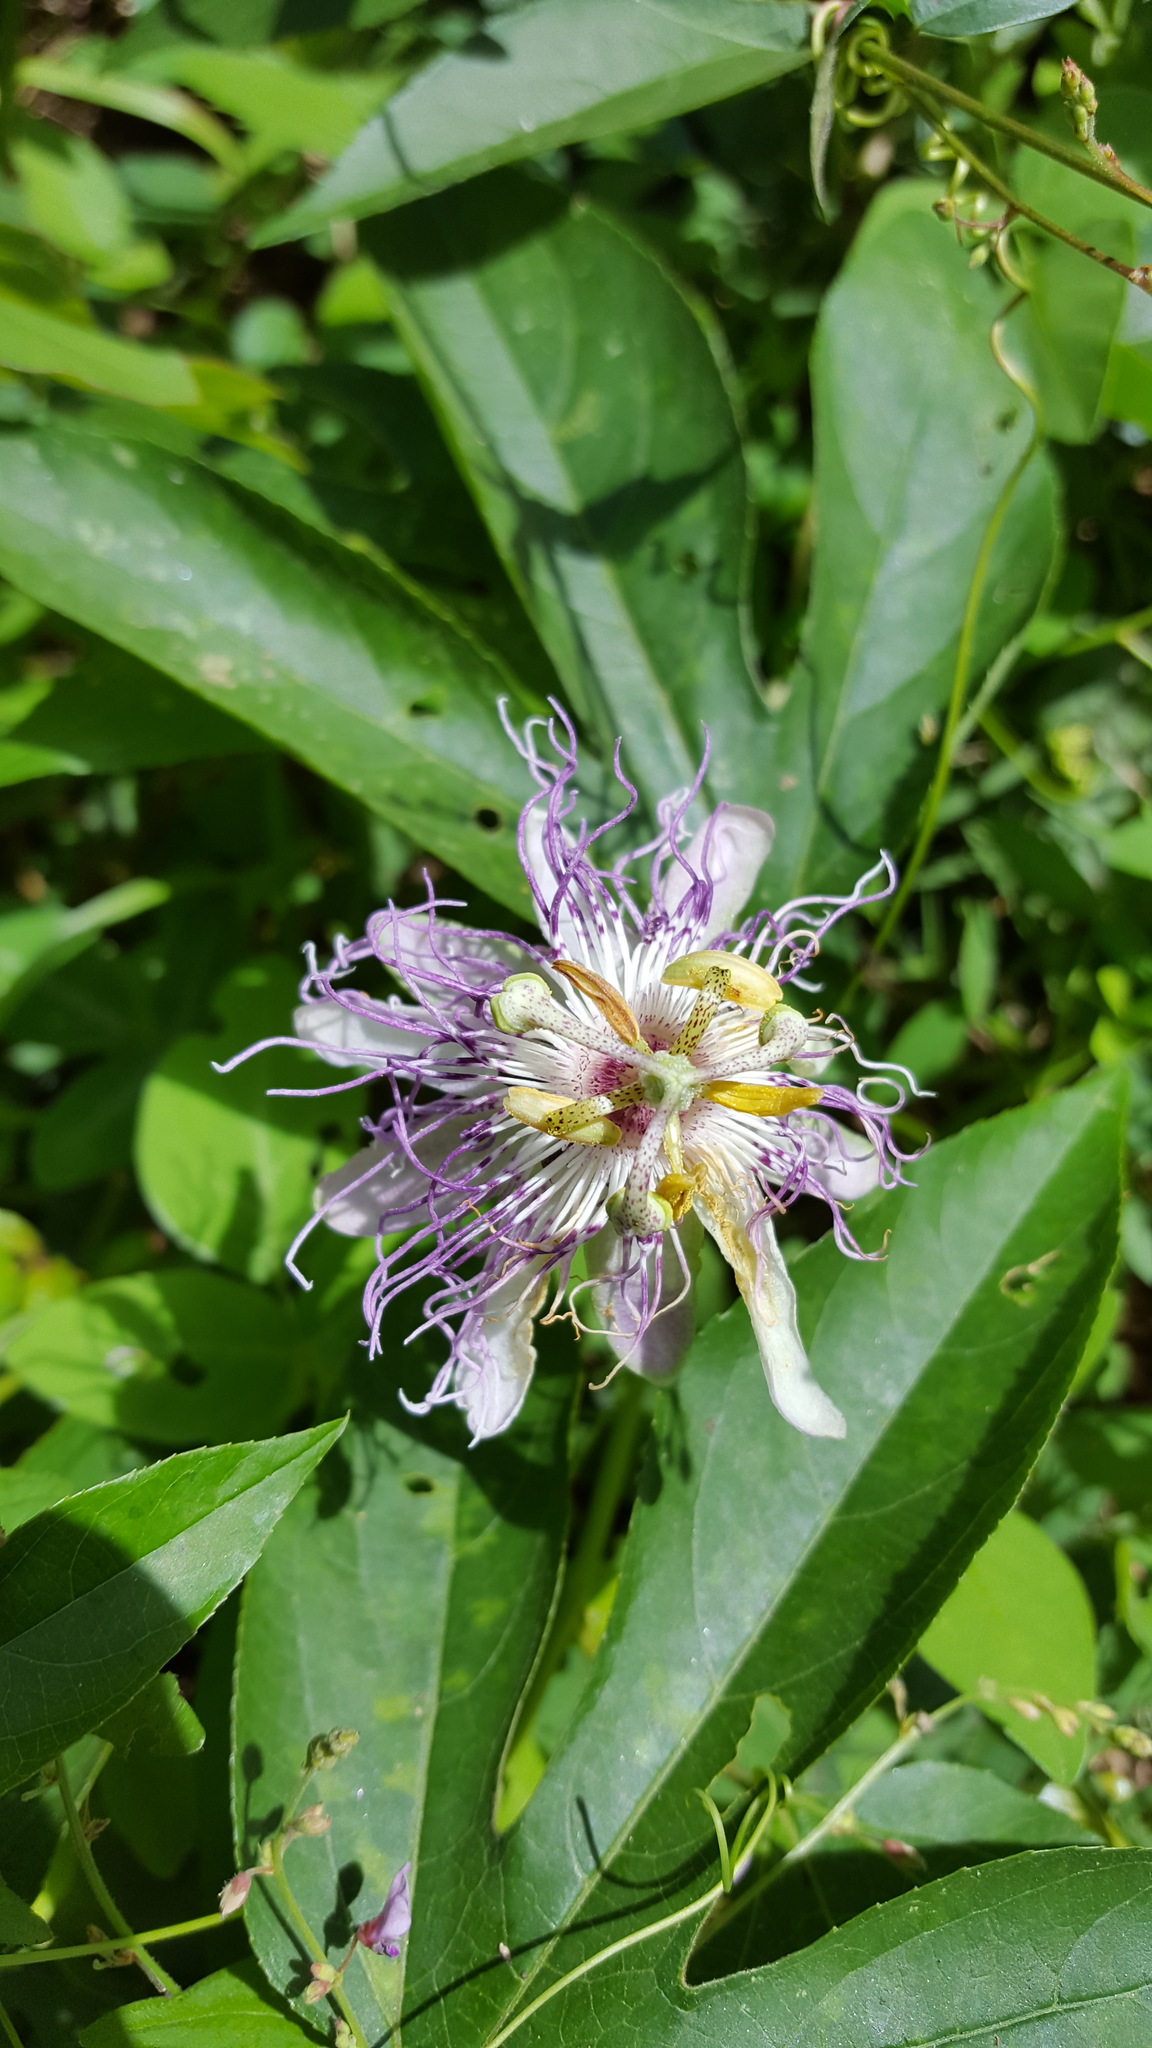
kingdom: Plantae
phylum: Tracheophyta
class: Magnoliopsida
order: Malpighiales
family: Passifloraceae
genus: Passiflora
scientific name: Passiflora incarnata
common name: Apricot-vine
